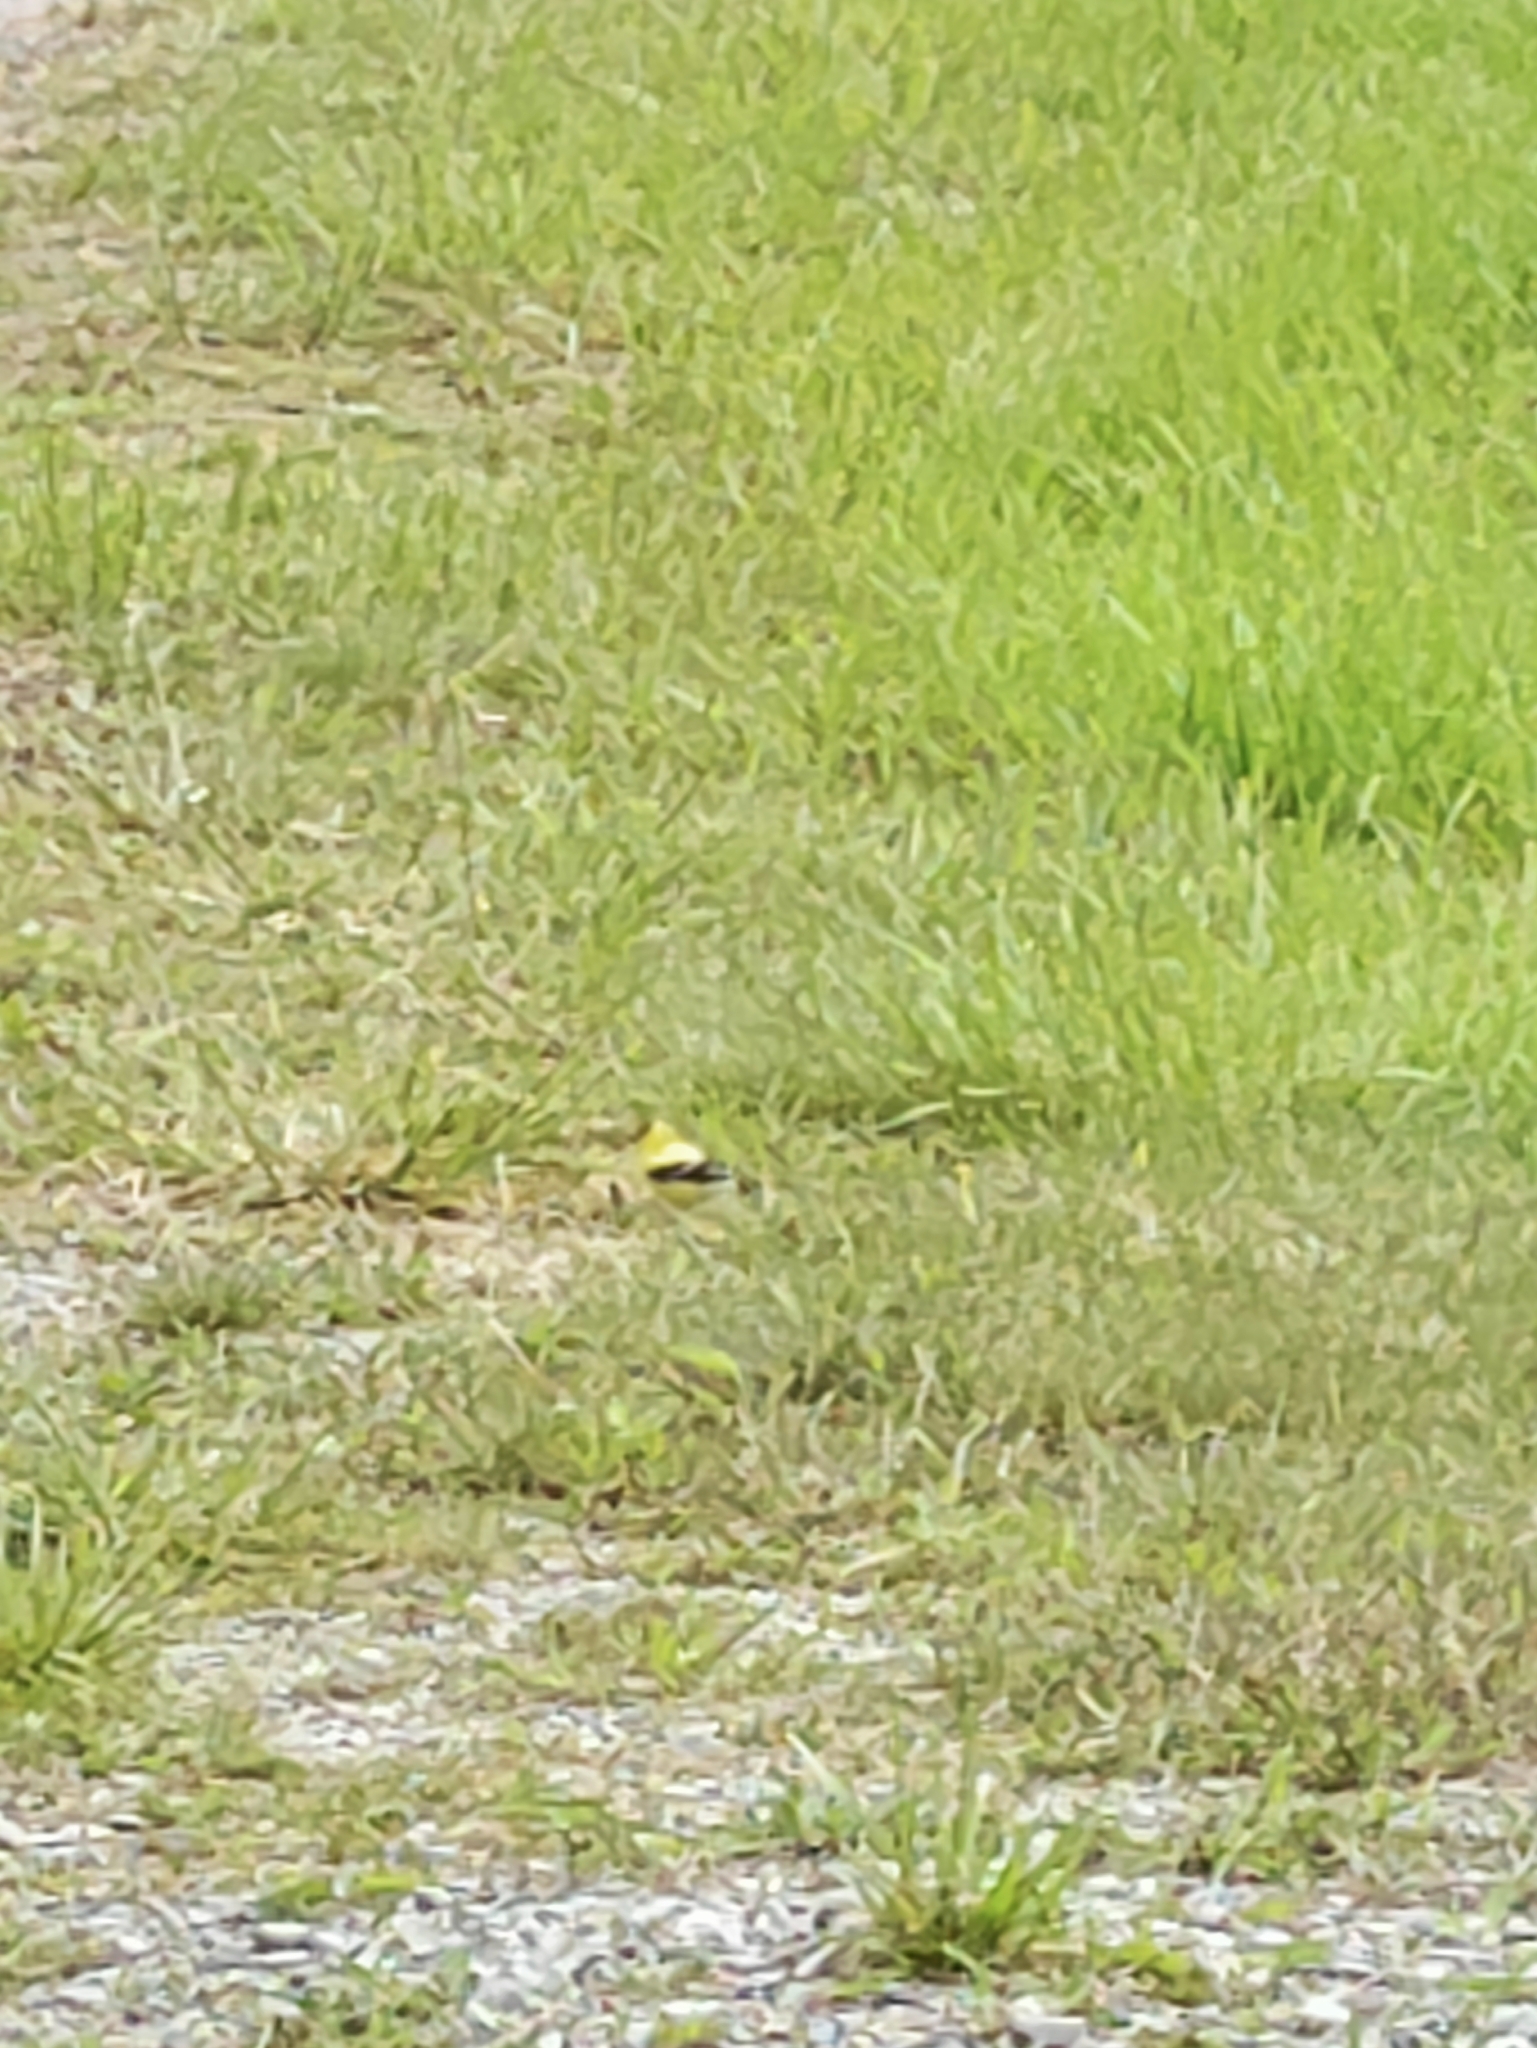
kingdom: Animalia
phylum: Chordata
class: Aves
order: Passeriformes
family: Fringillidae
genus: Spinus
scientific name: Spinus tristis
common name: American goldfinch
